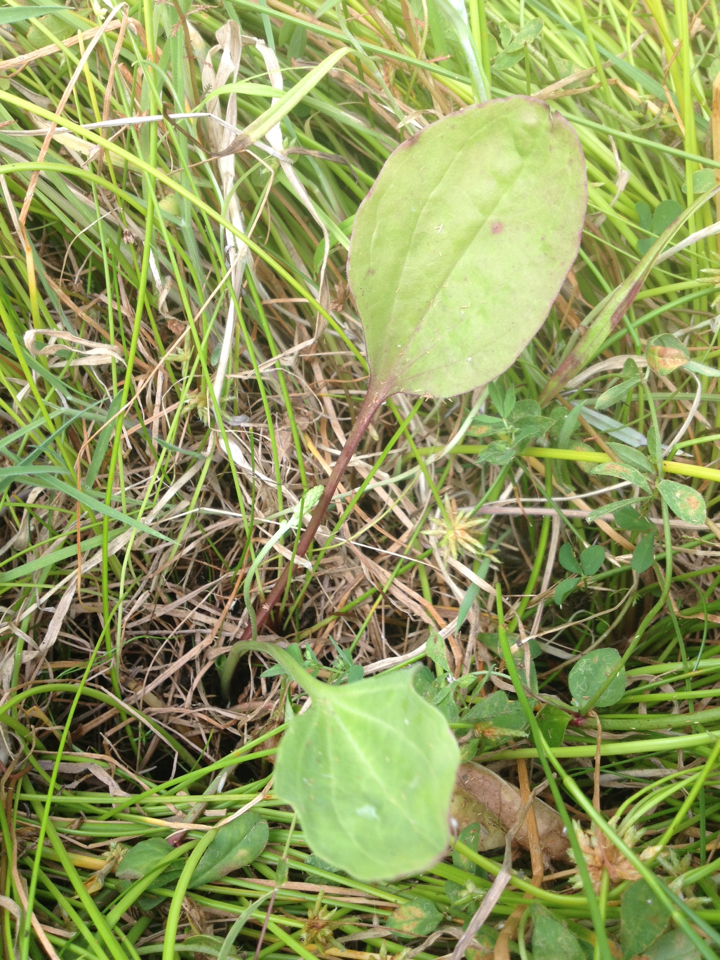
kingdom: Plantae
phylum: Tracheophyta
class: Magnoliopsida
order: Lamiales
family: Plantaginaceae
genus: Plantago
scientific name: Plantago major
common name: Common plantain
